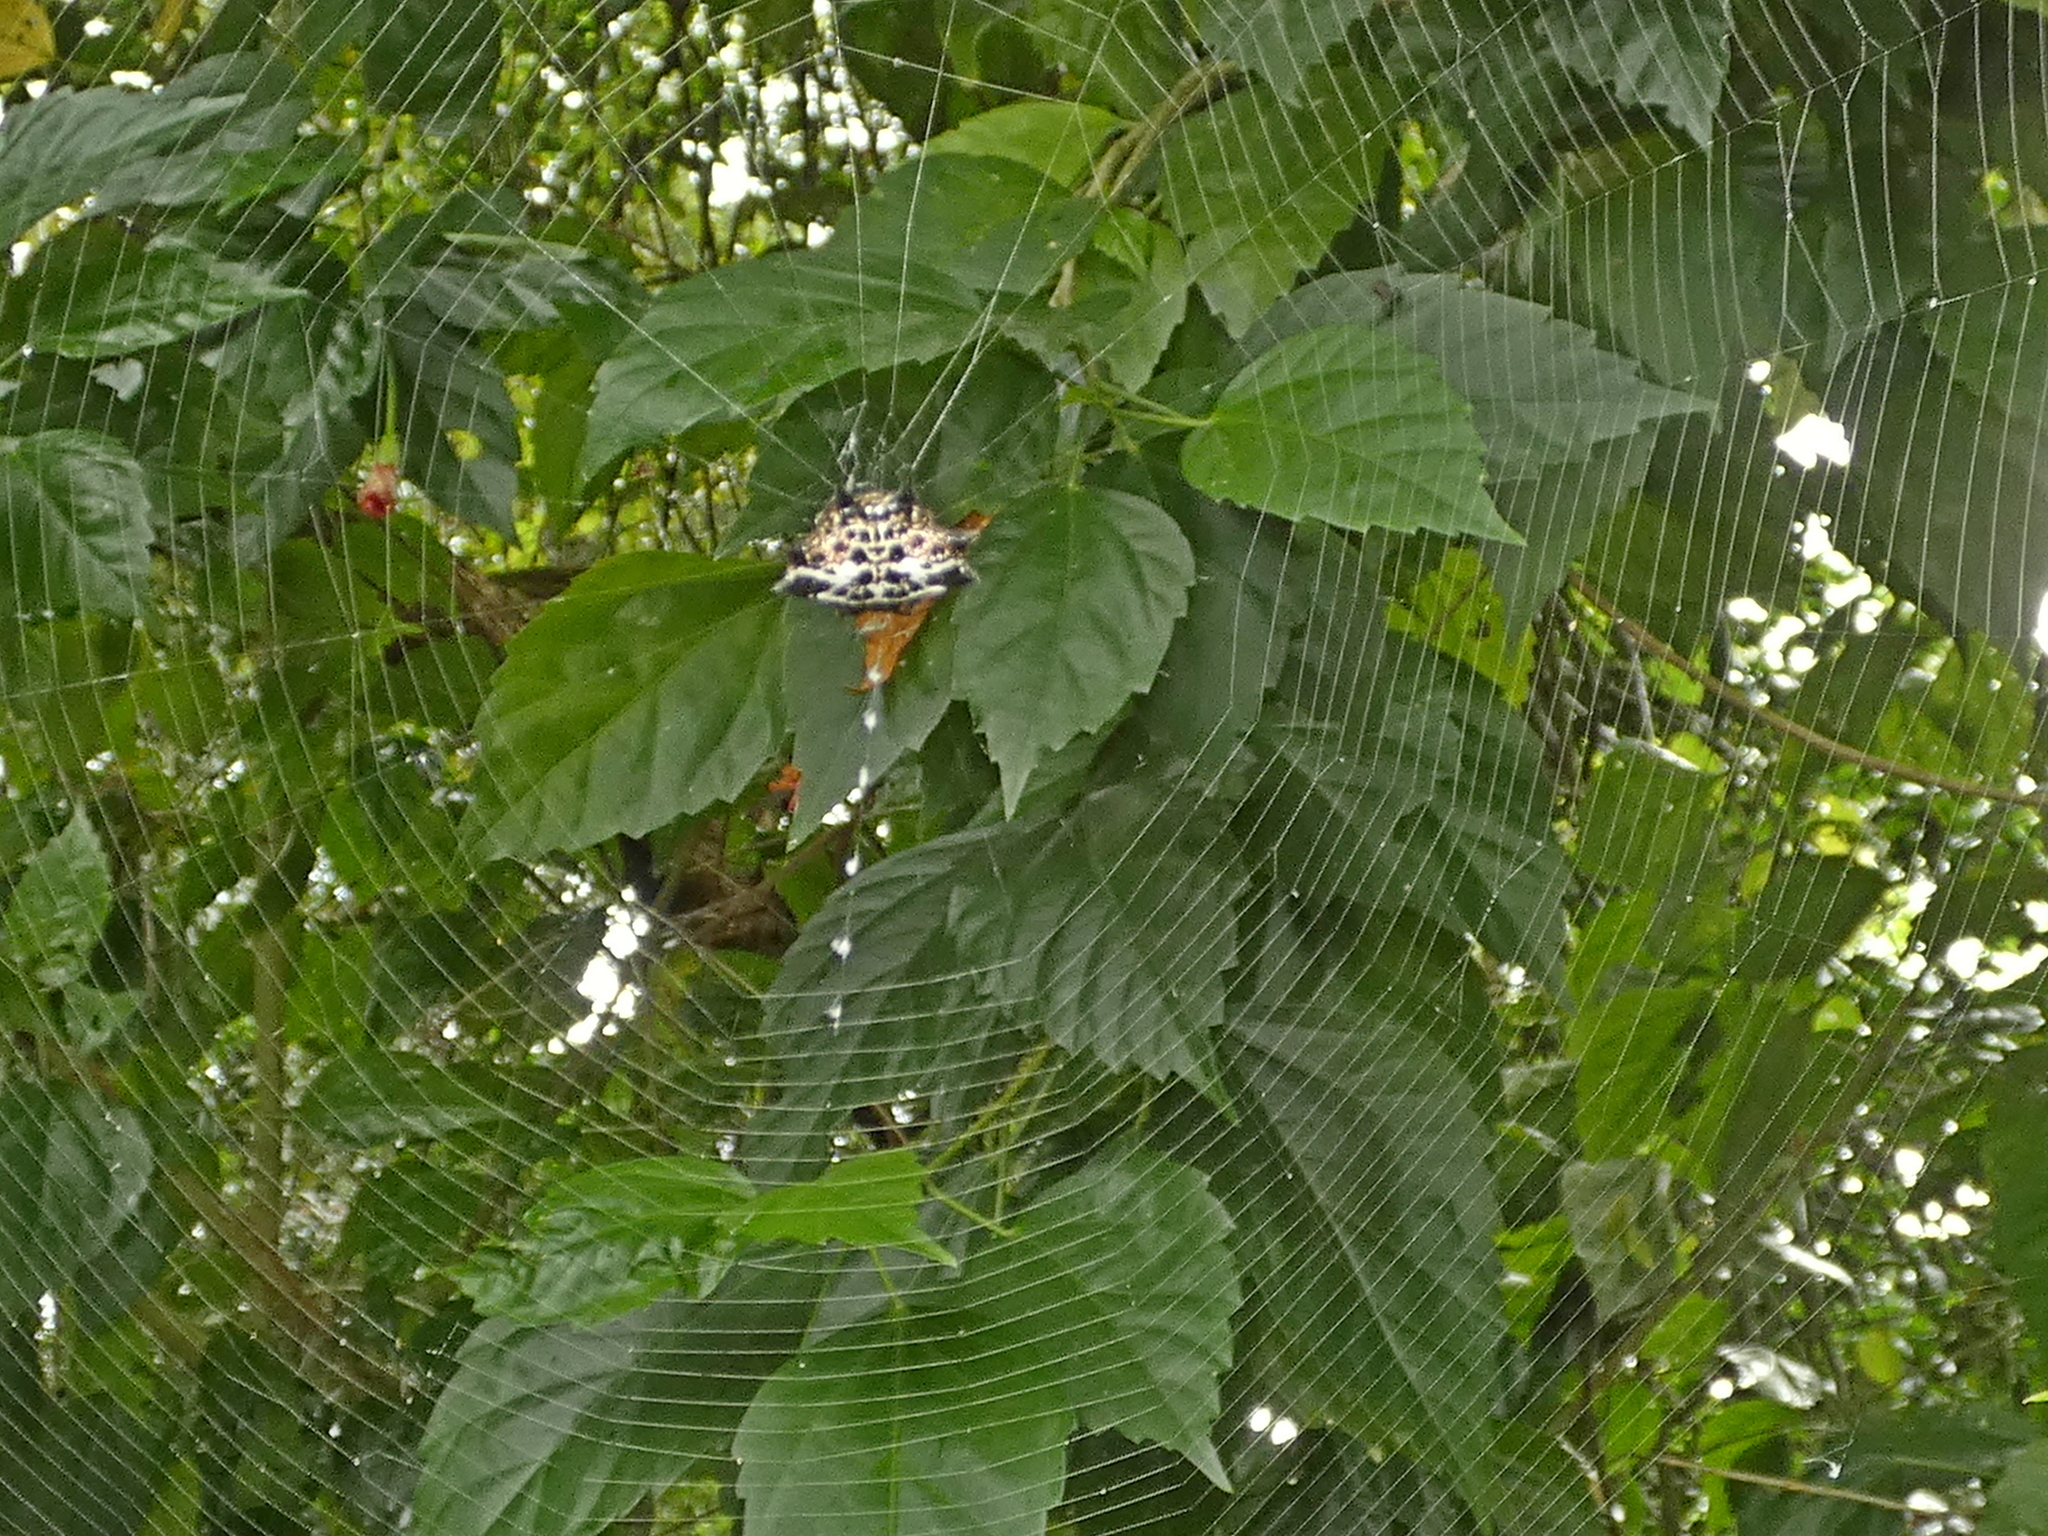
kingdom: Animalia
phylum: Arthropoda
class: Arachnida
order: Araneae
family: Araneidae
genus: Gasteracantha
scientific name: Gasteracantha cancriformis
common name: Orb weavers
